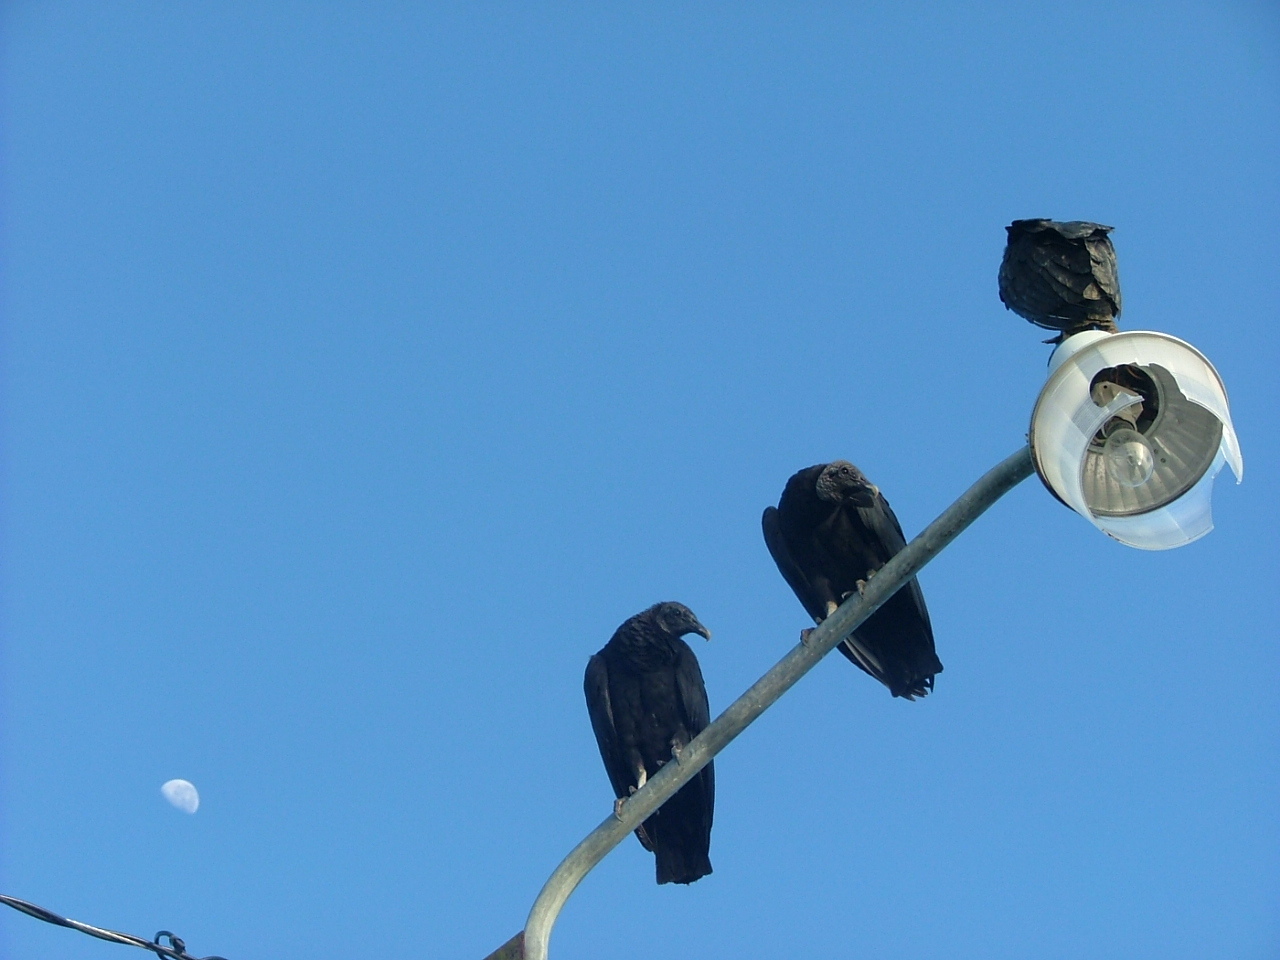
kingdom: Animalia
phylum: Chordata
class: Aves
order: Accipitriformes
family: Cathartidae
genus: Coragyps
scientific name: Coragyps atratus
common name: Black vulture
